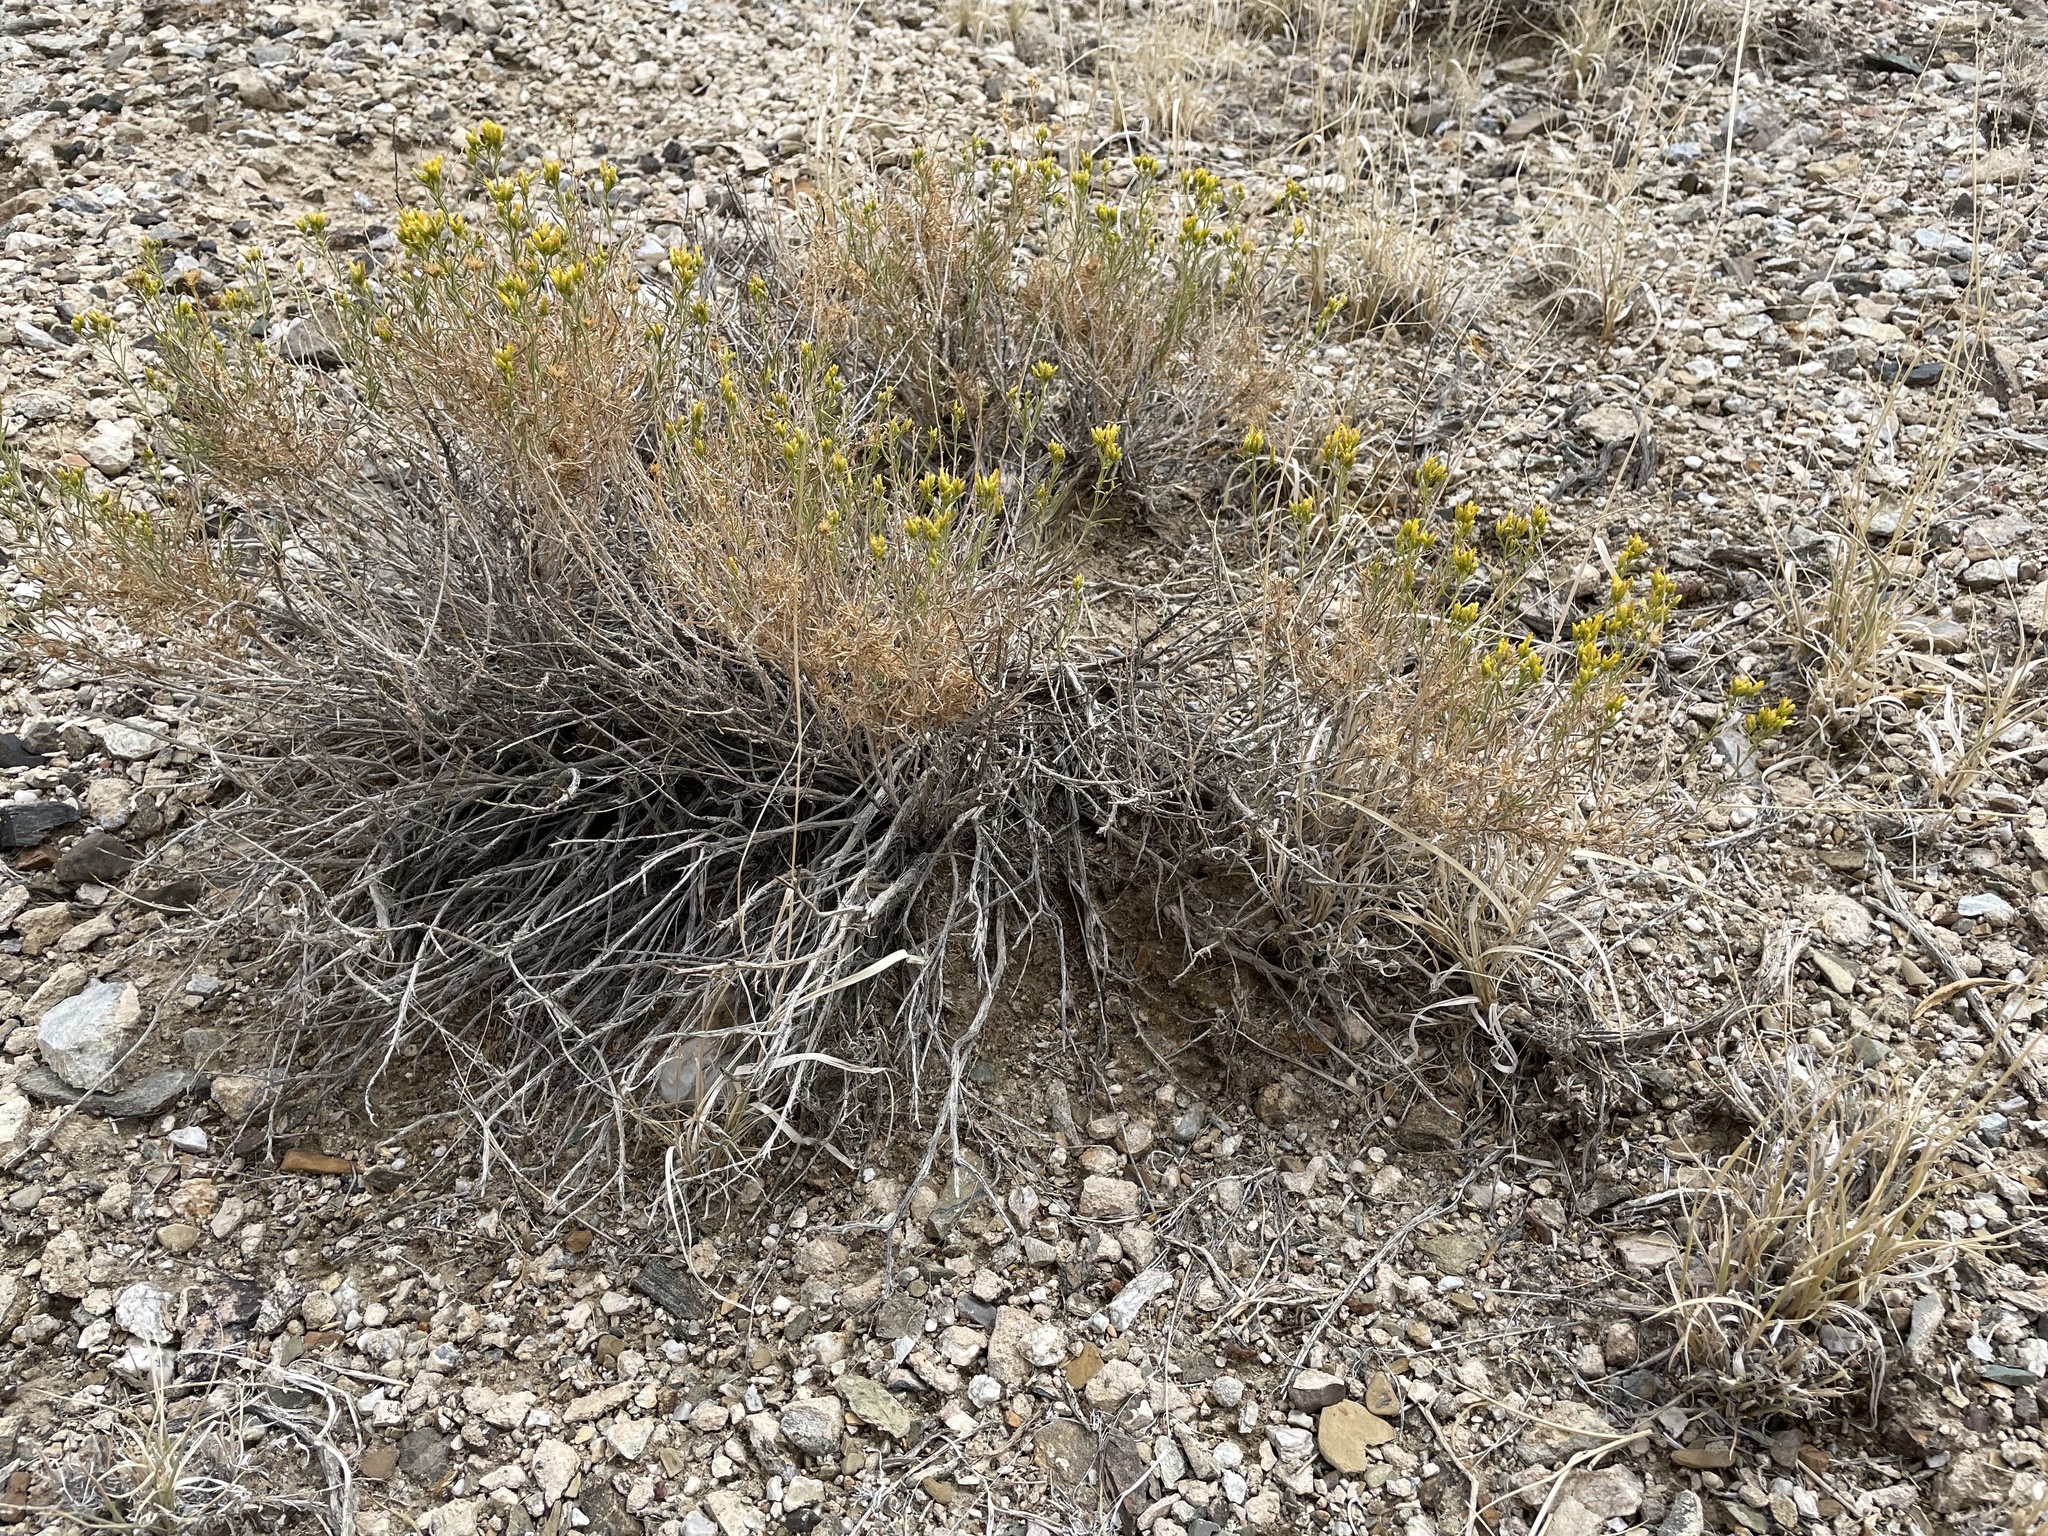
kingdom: Plantae
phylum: Tracheophyta
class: Magnoliopsida
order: Asterales
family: Asteraceae
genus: Chrysothamnus
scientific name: Chrysothamnus viscidiflorus
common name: Yellow rabbitbrush
